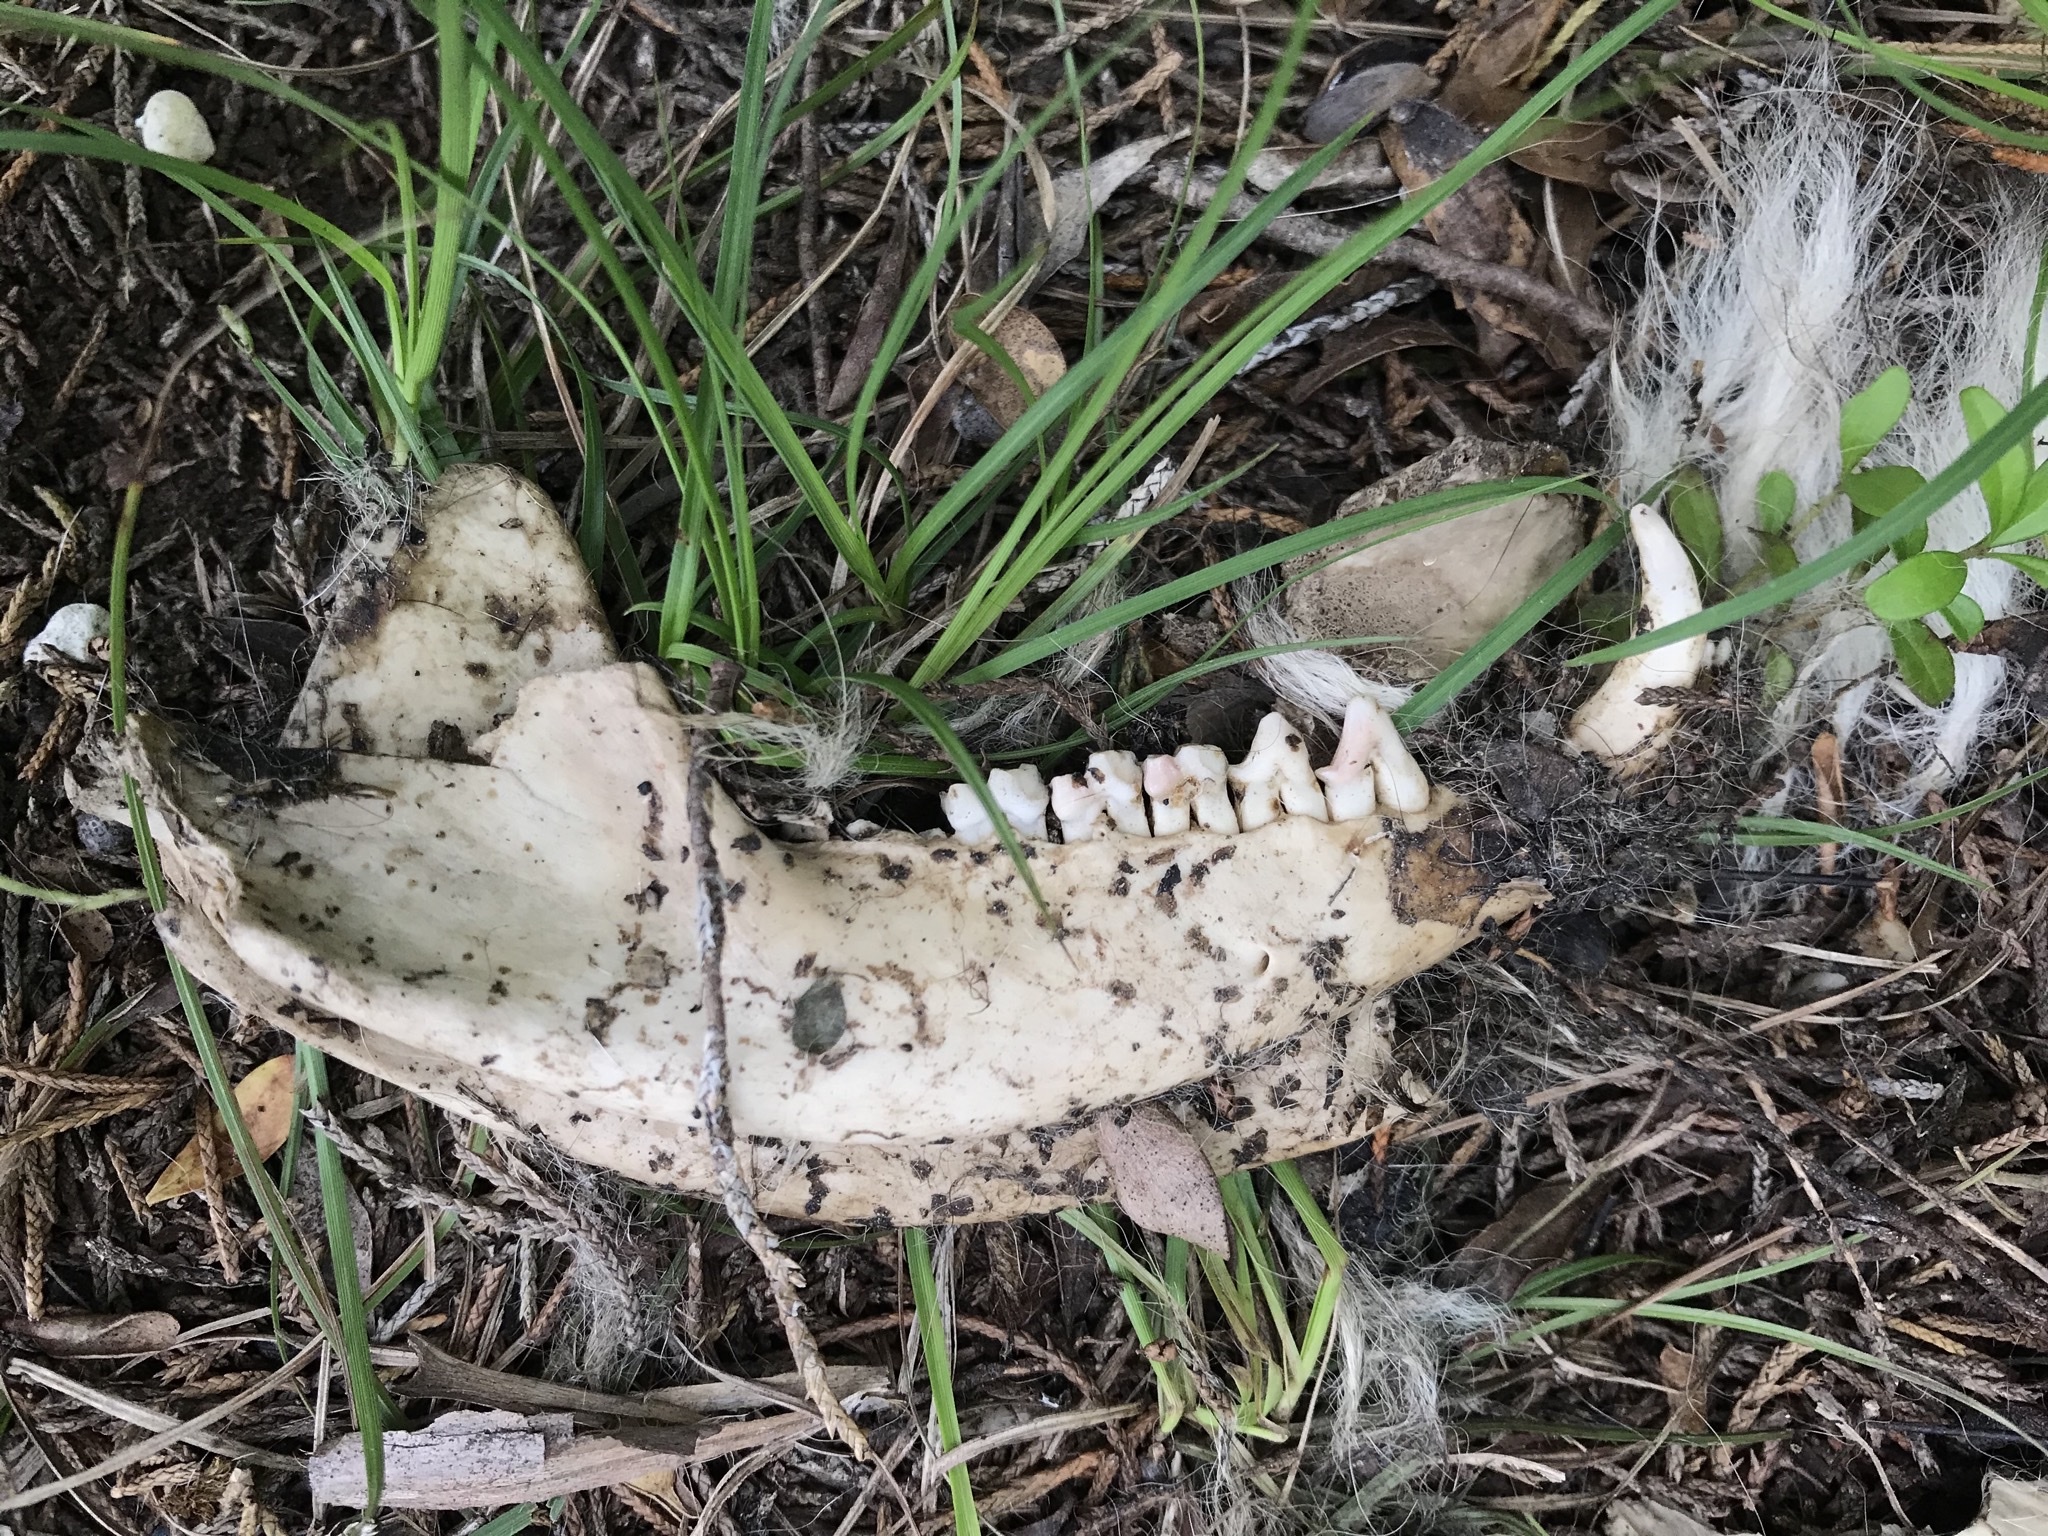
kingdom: Animalia
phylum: Chordata
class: Mammalia
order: Didelphimorphia
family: Didelphidae
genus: Didelphis
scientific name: Didelphis virginiana
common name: Virginia opossum
